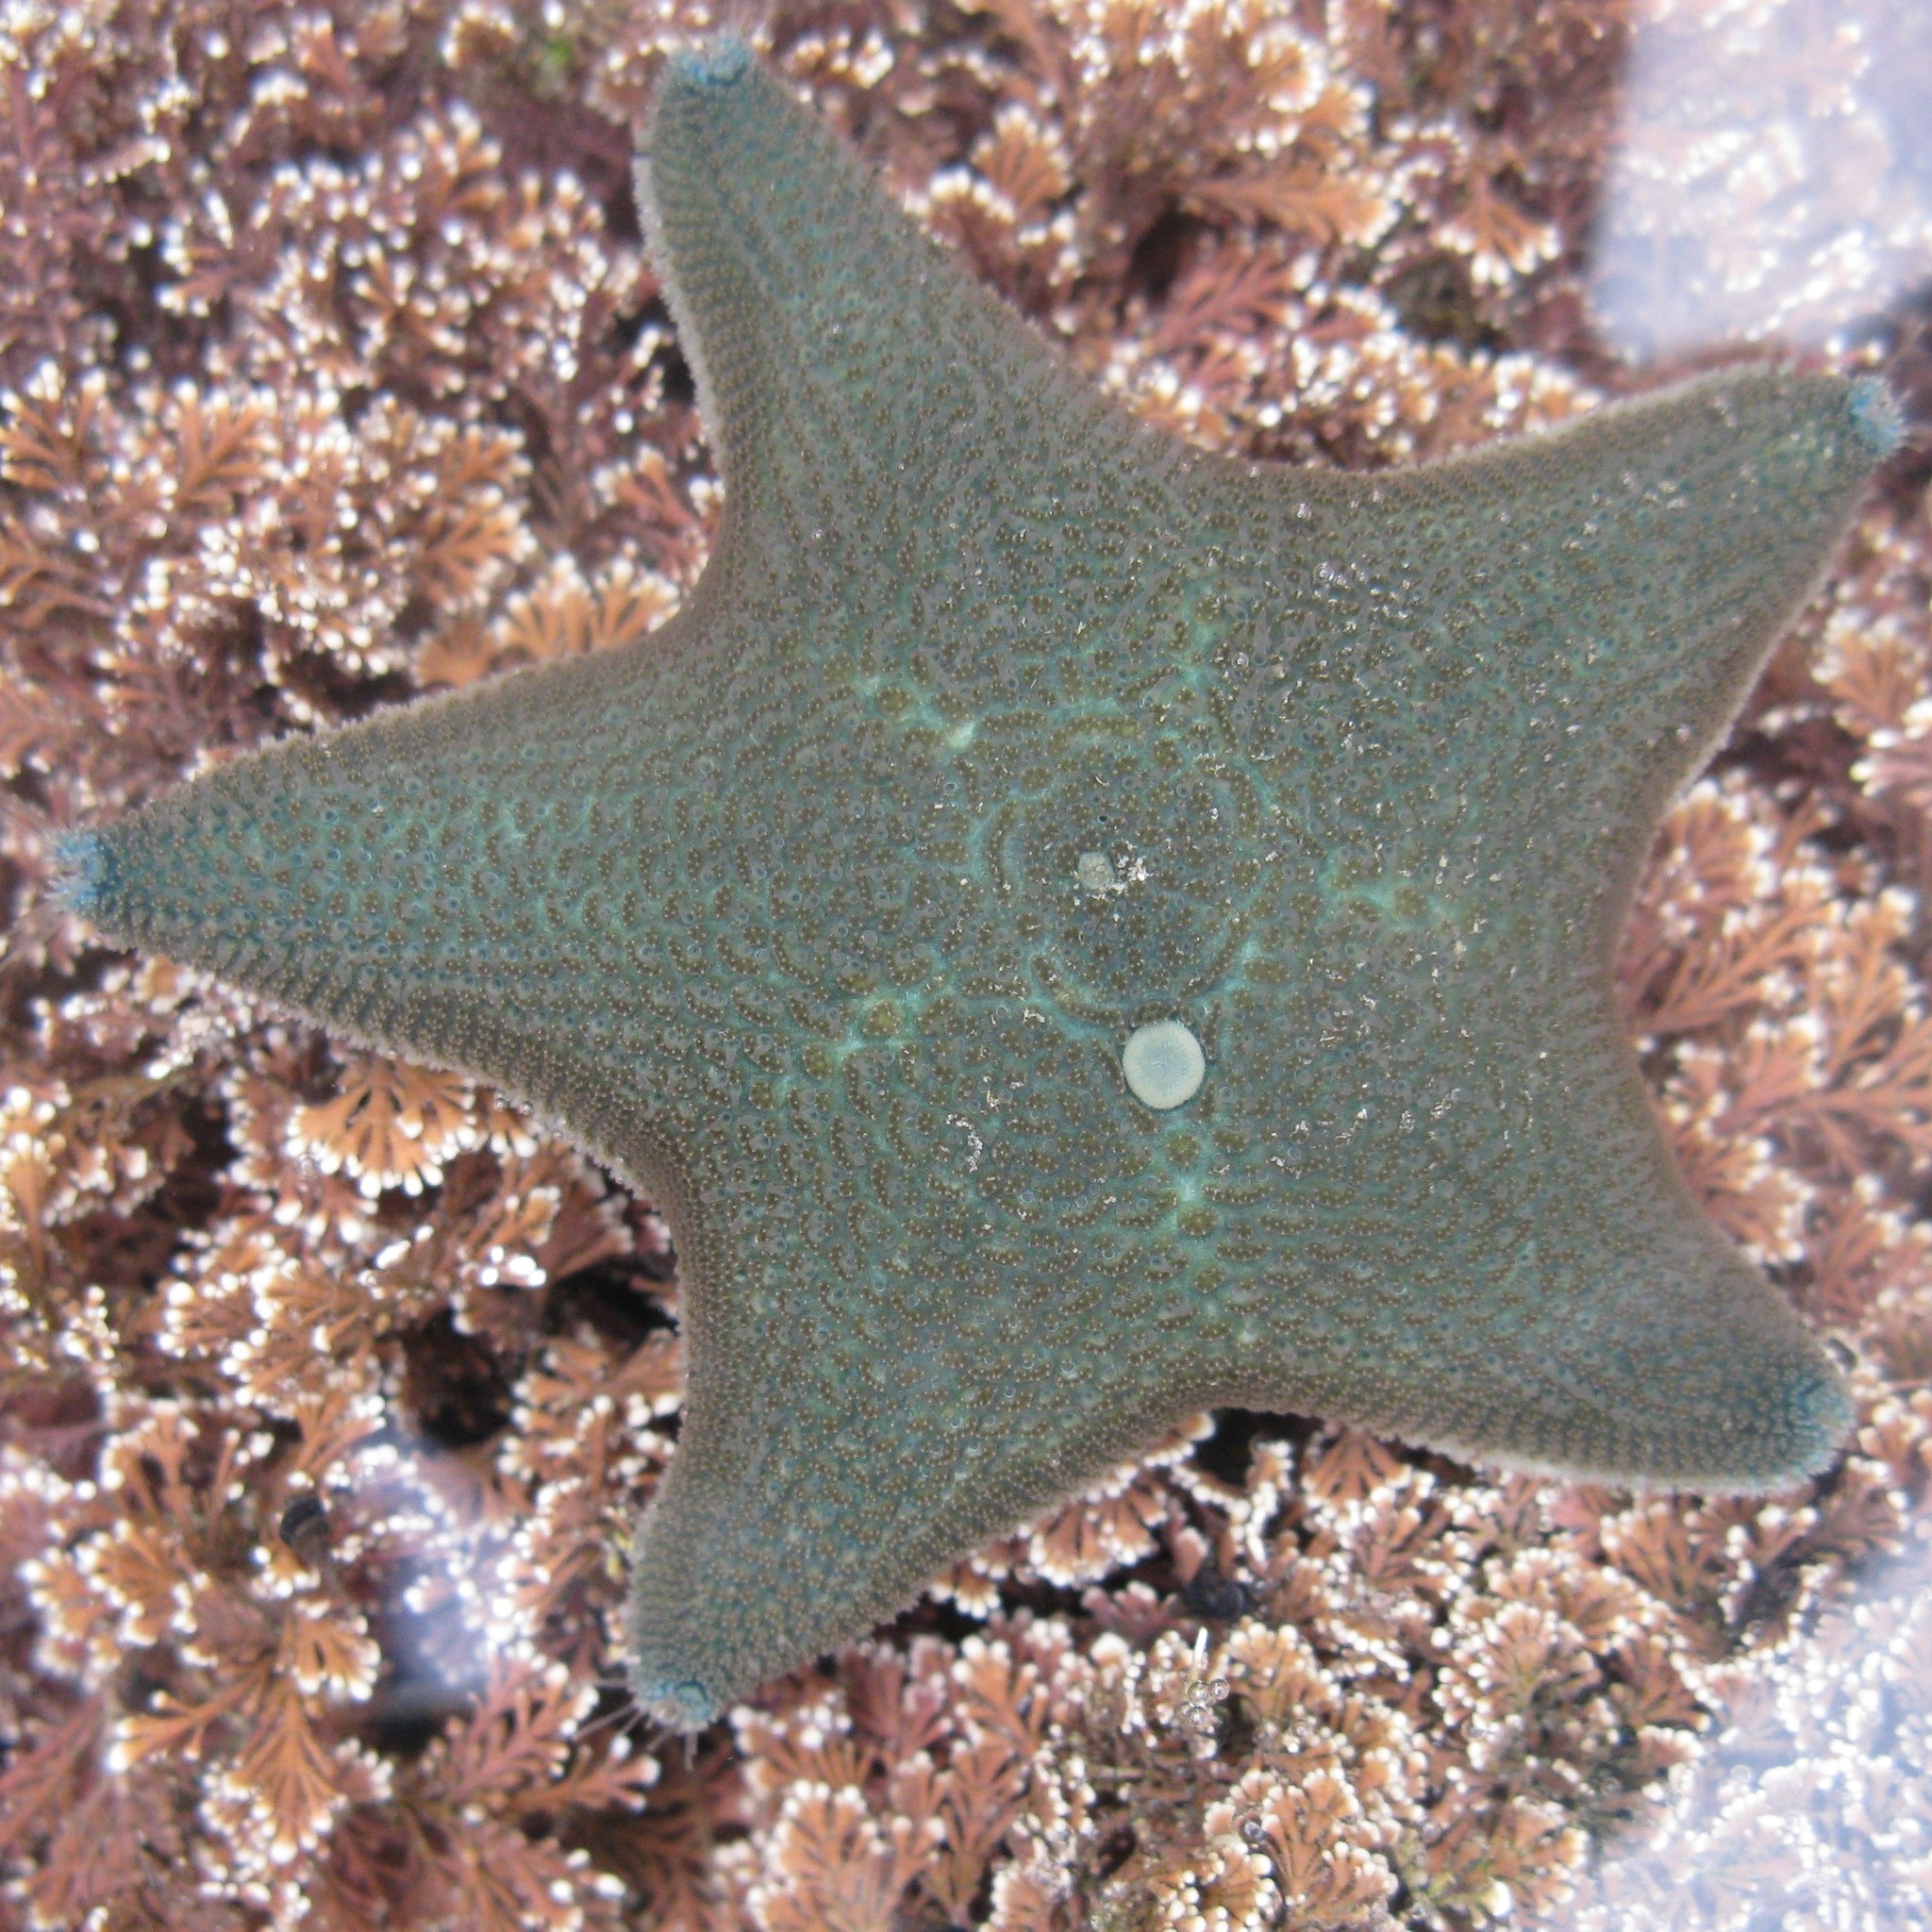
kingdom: Animalia
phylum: Echinodermata
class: Asteroidea
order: Valvatida
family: Asterinidae
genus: Patiriella
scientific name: Patiriella regularis
